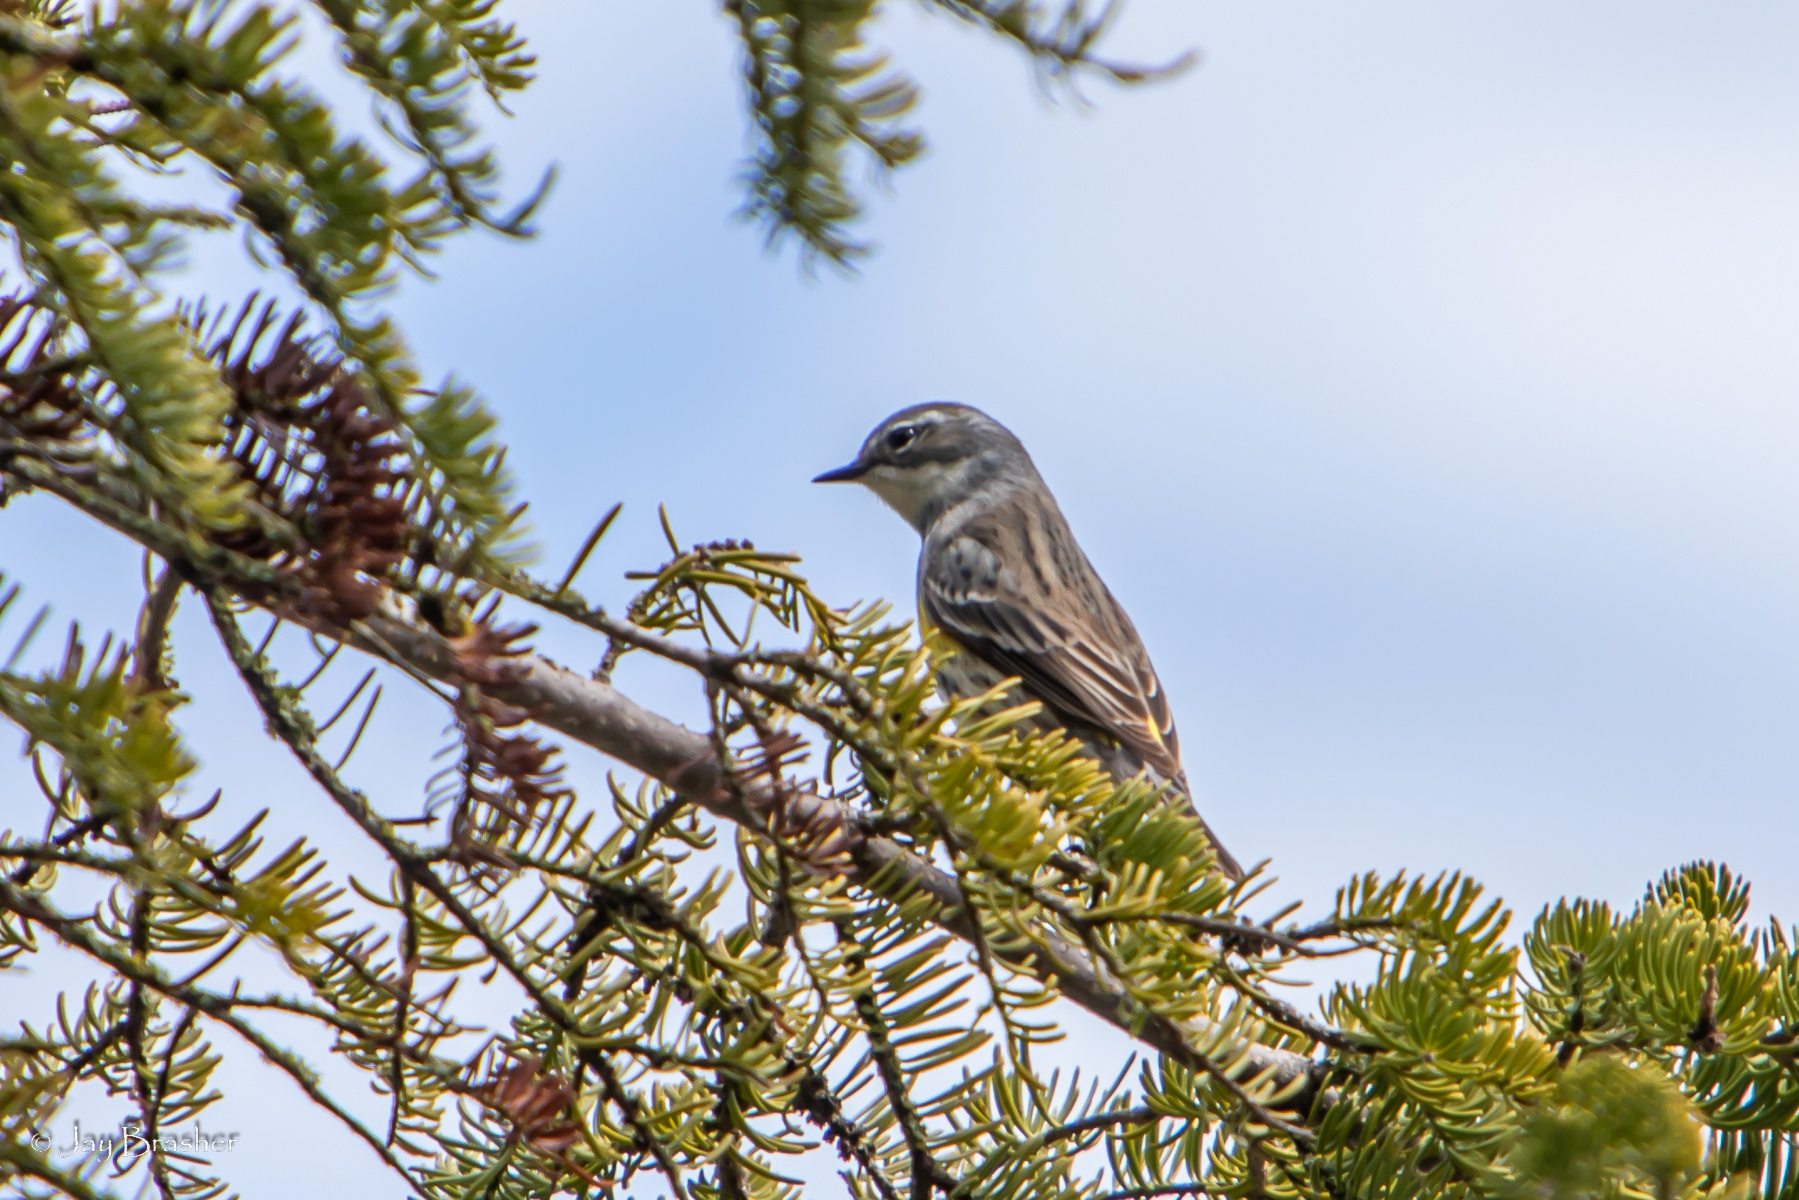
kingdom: Animalia
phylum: Chordata
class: Aves
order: Passeriformes
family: Parulidae
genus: Setophaga
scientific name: Setophaga coronata
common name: Myrtle warbler
